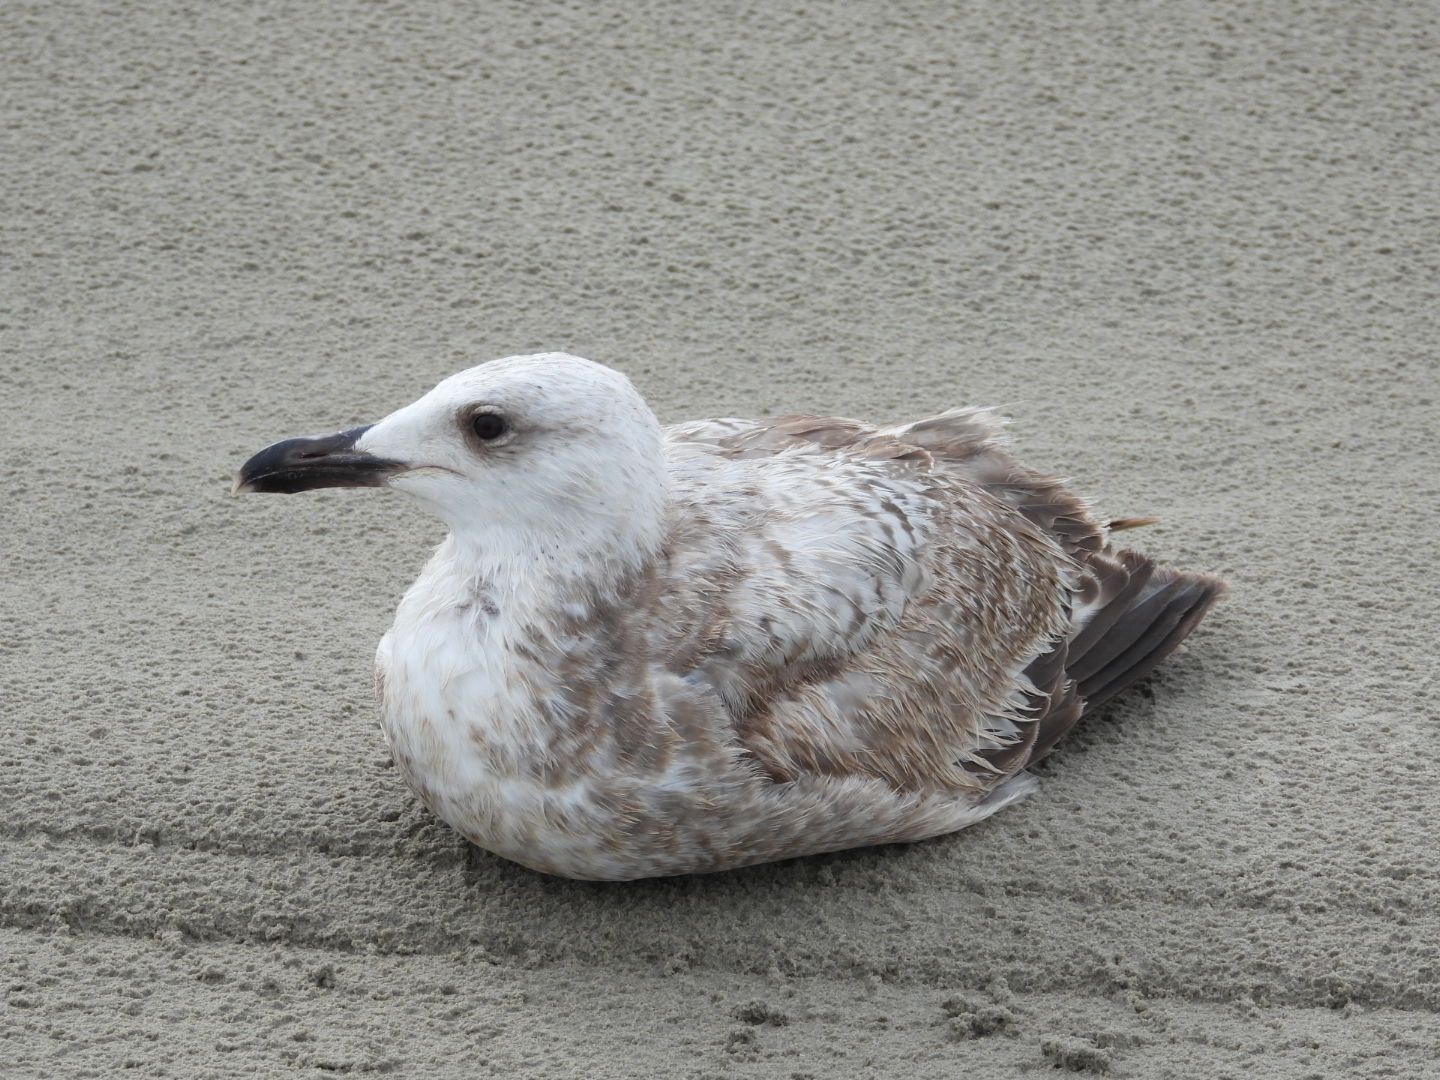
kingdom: Animalia
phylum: Chordata
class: Aves
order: Charadriiformes
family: Laridae
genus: Larus
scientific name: Larus marinus
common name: Great black-backed gull
